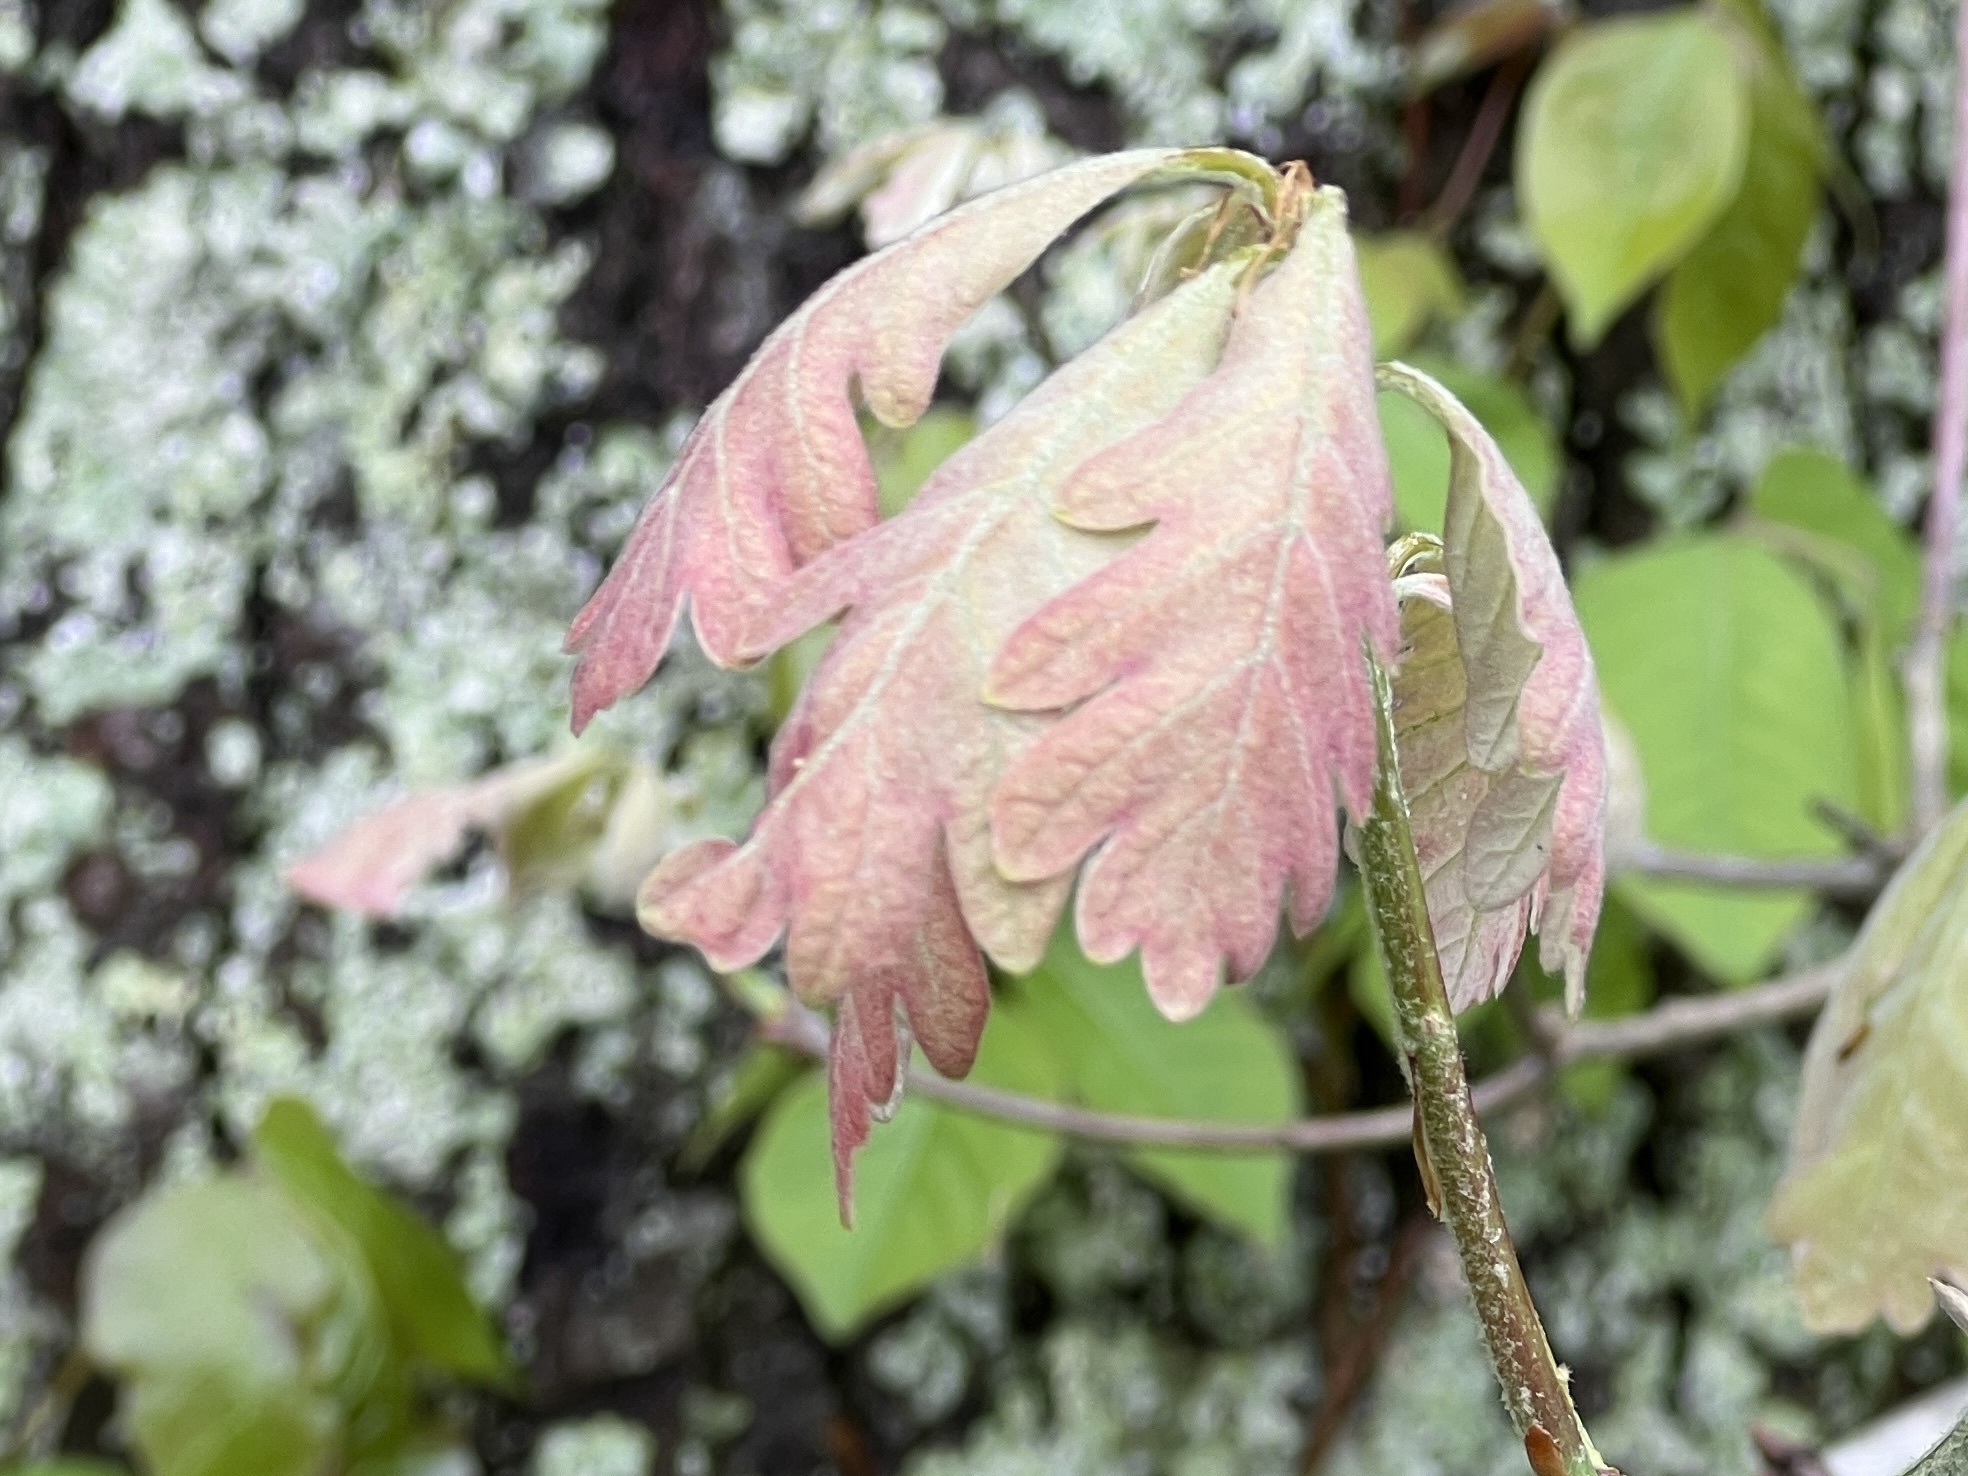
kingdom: Plantae
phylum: Tracheophyta
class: Magnoliopsida
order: Fagales
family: Fagaceae
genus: Quercus
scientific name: Quercus alba
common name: White oak
